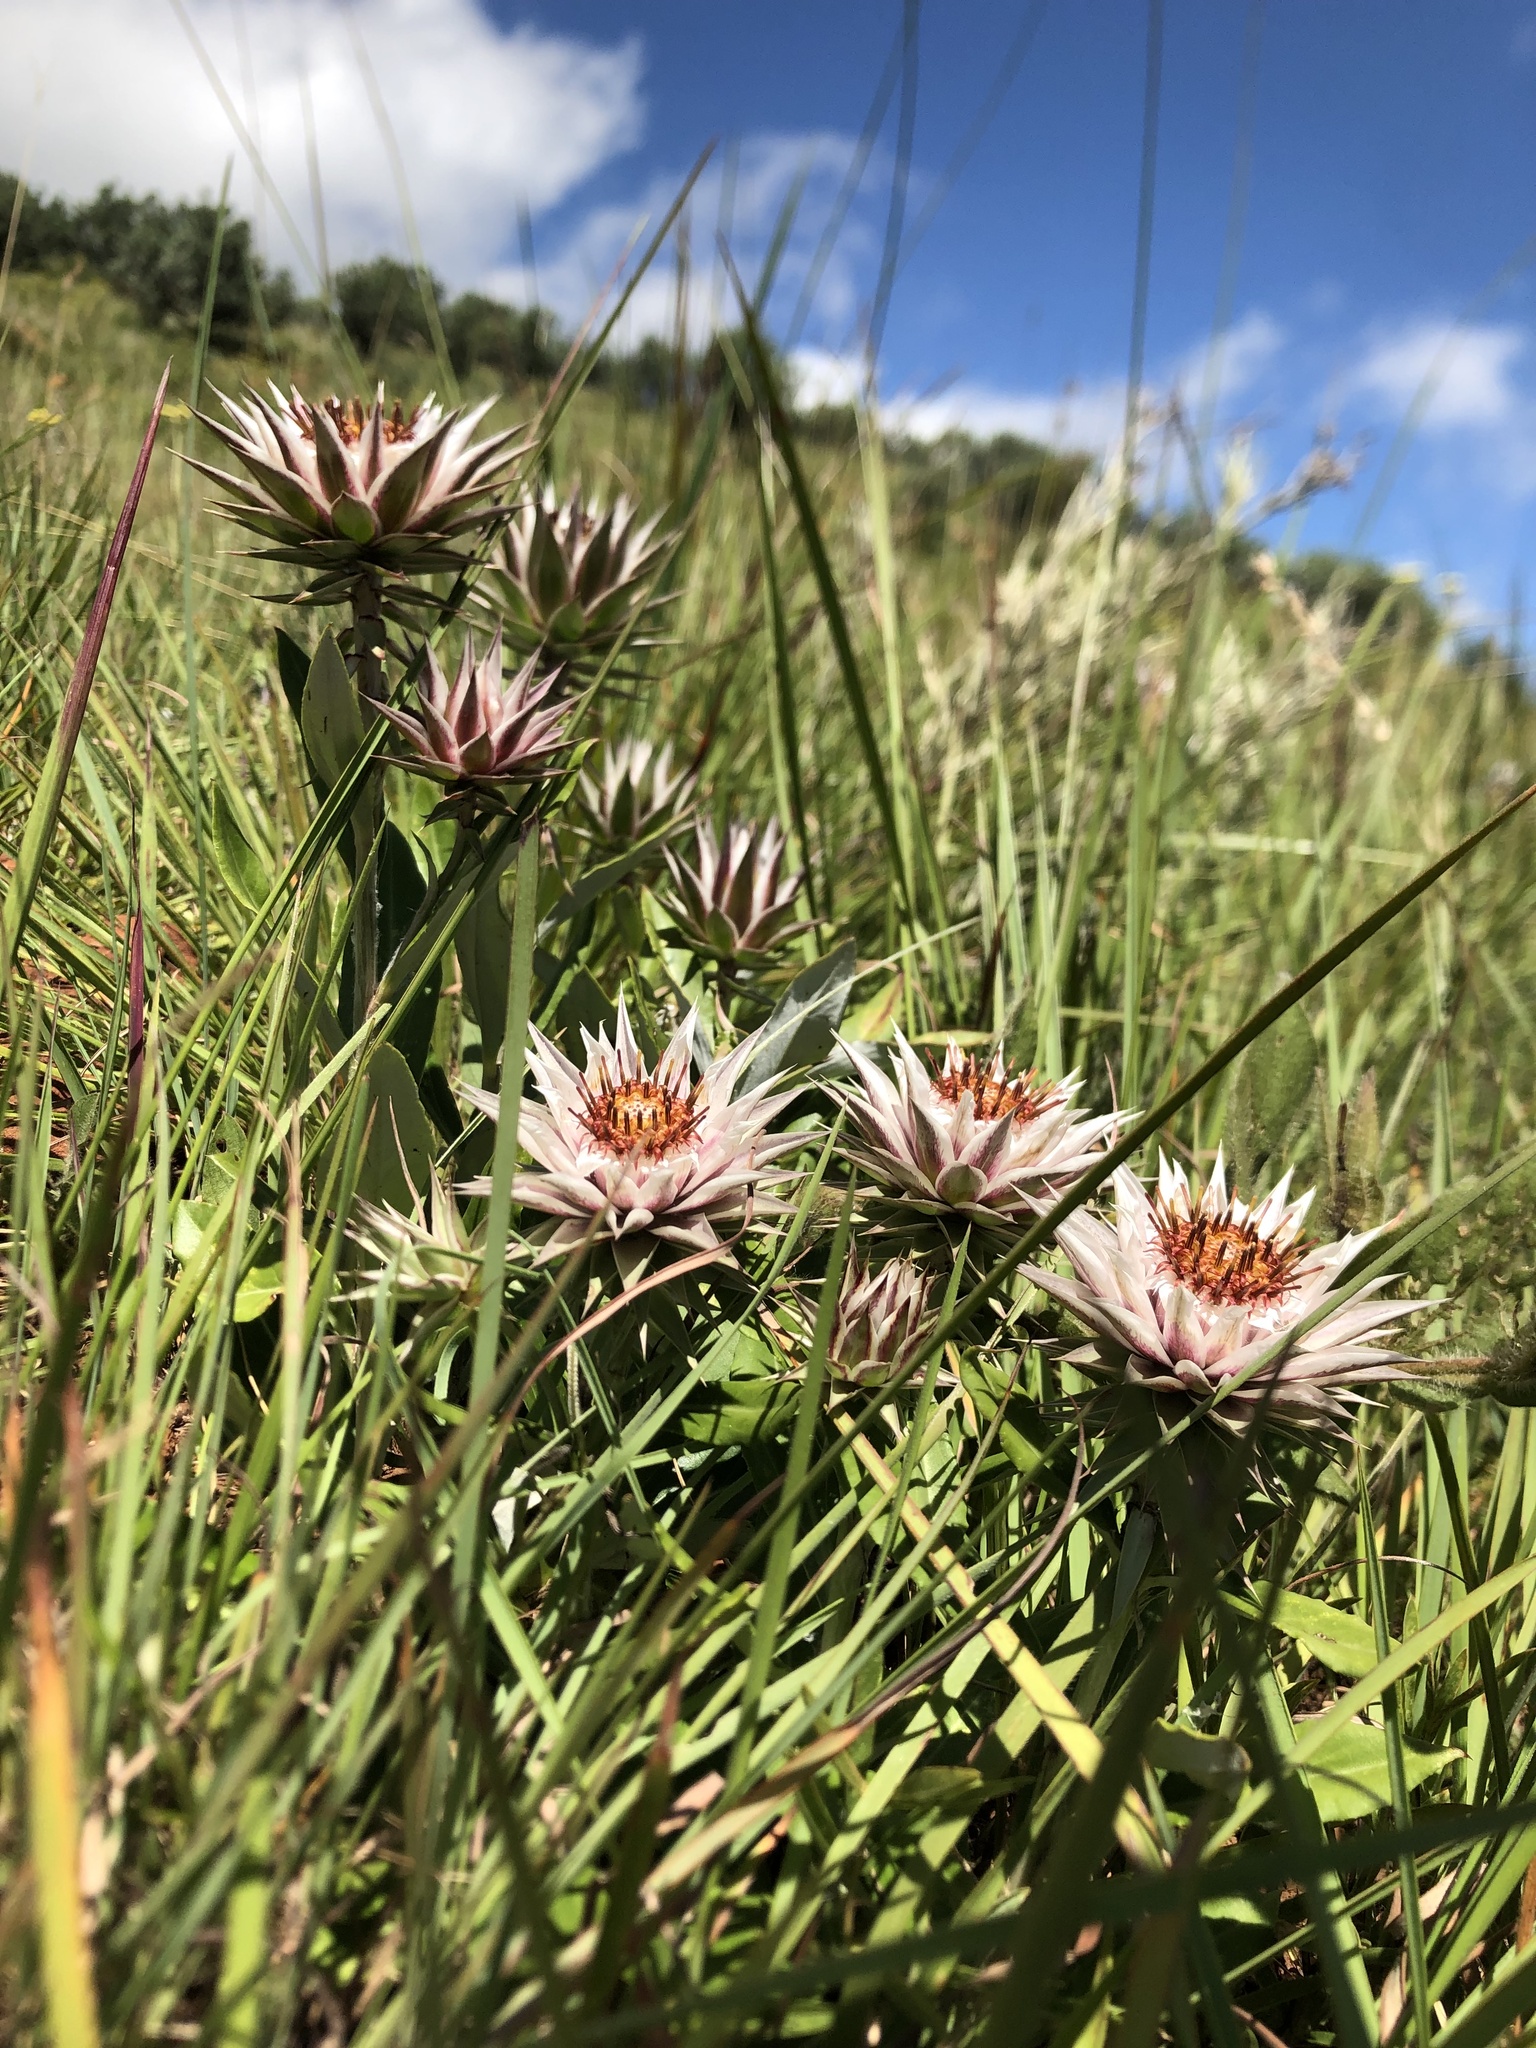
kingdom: Plantae
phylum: Tracheophyta
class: Magnoliopsida
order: Asterales
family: Asteraceae
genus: Macledium
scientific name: Macledium zeyheri
